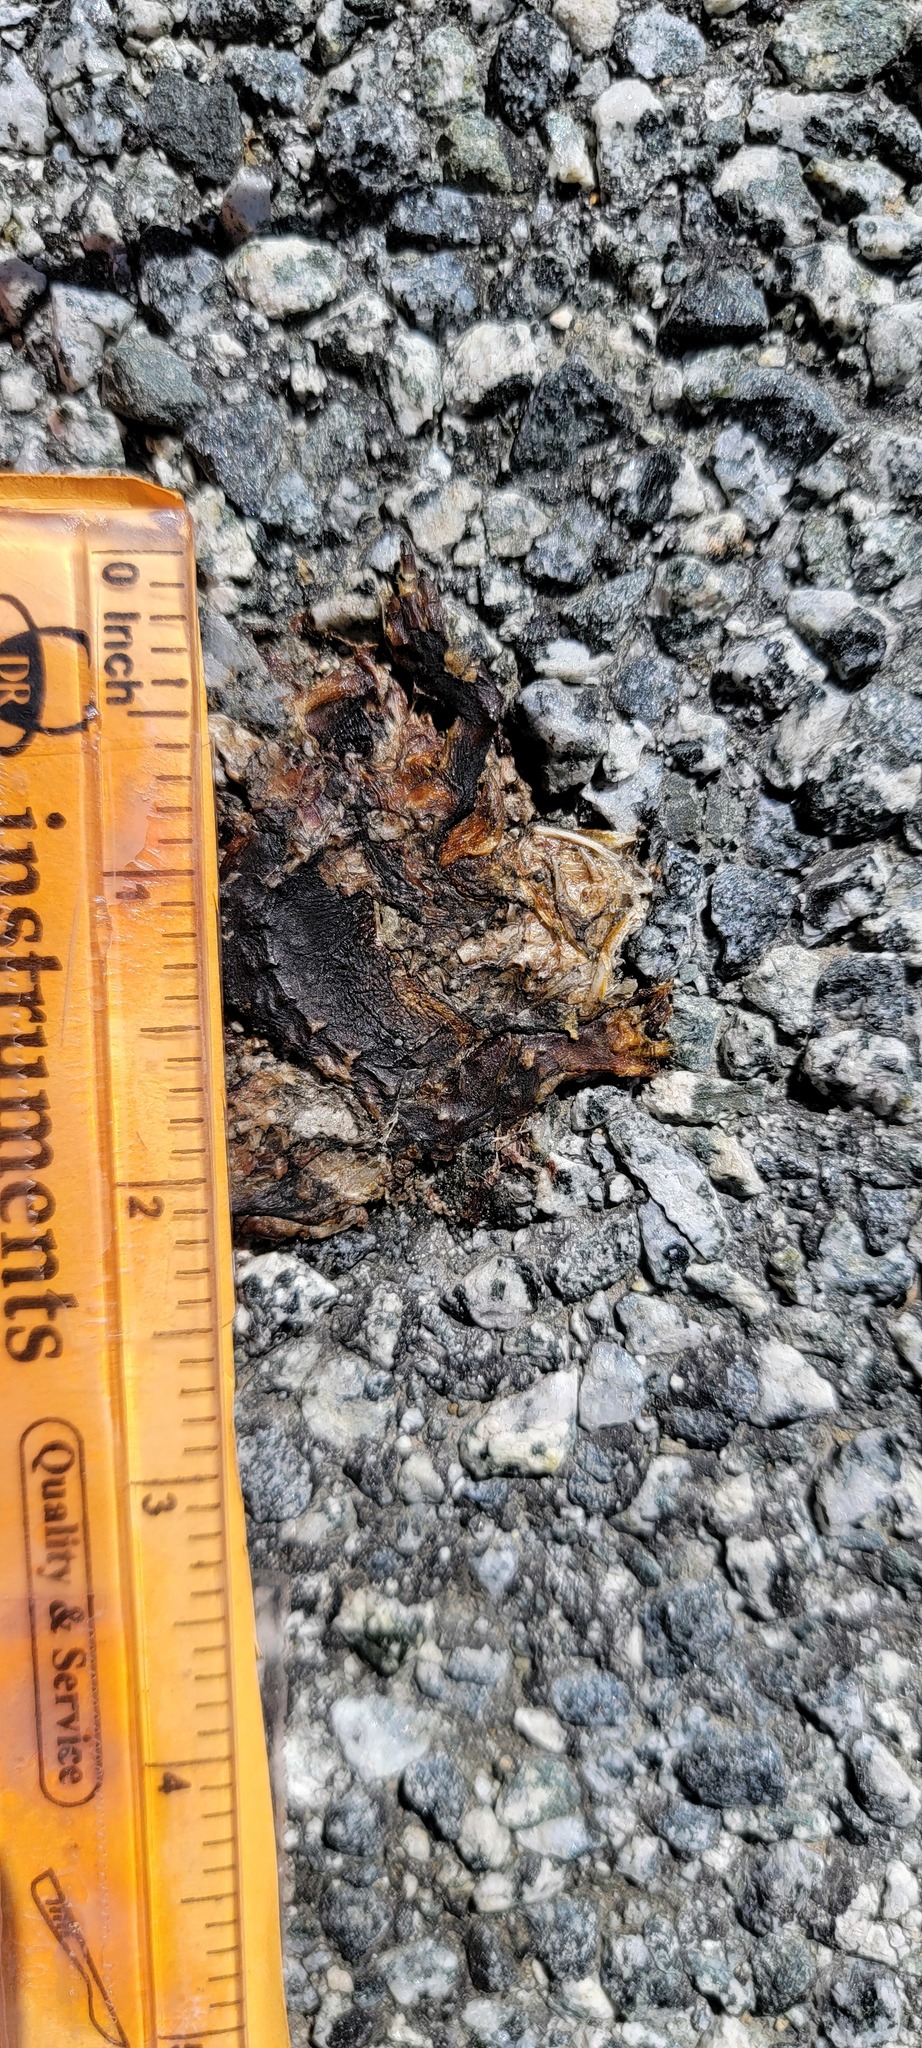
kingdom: Animalia
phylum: Chordata
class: Amphibia
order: Caudata
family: Salamandridae
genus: Taricha
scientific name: Taricha
